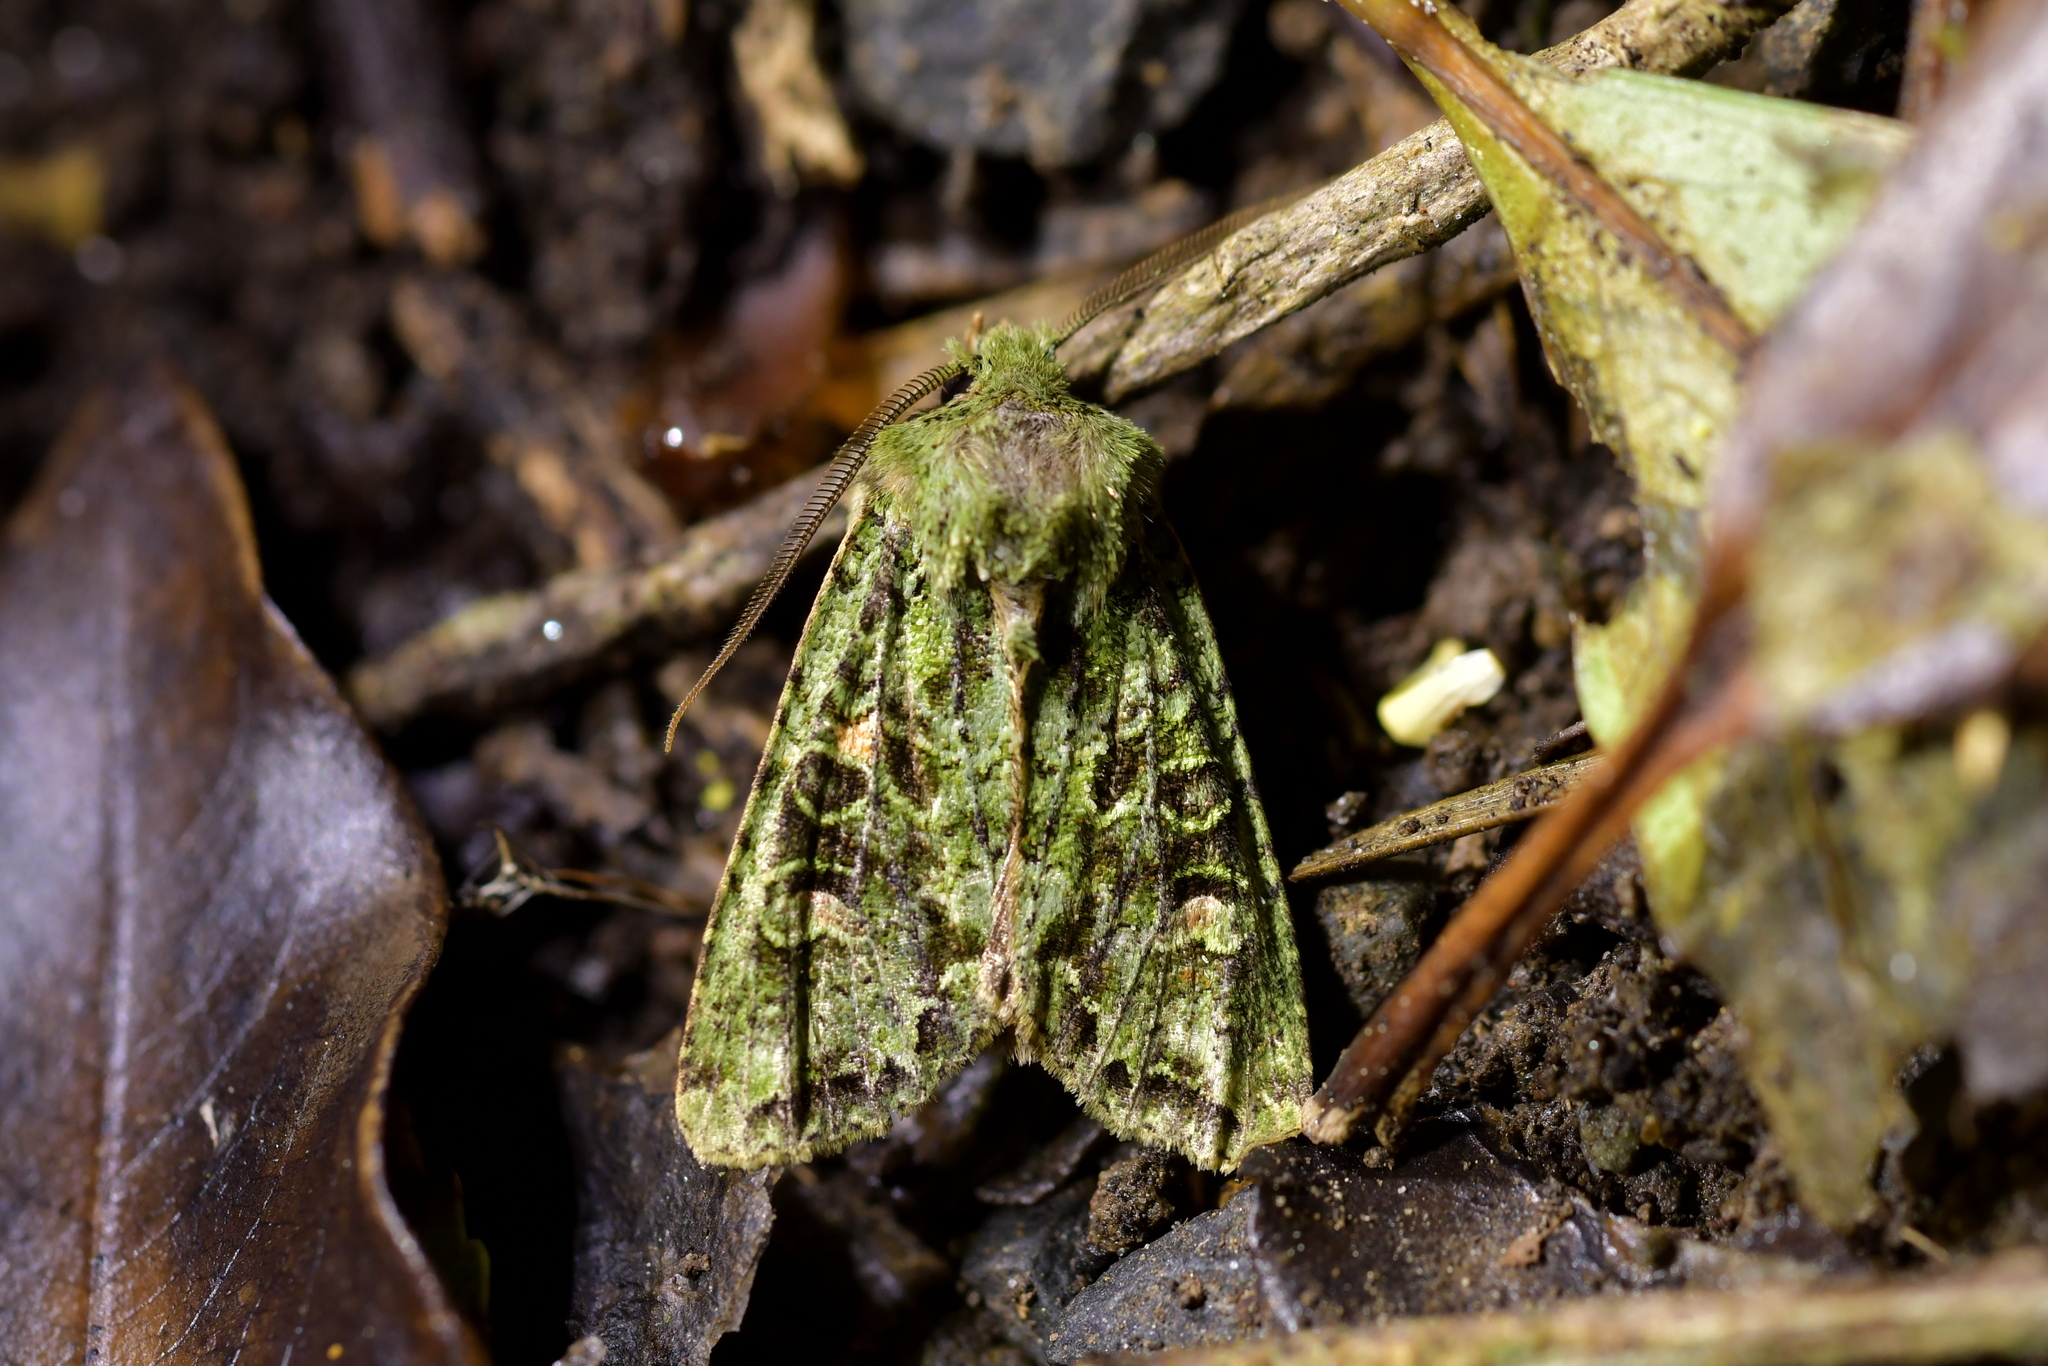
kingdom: Animalia
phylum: Arthropoda
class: Insecta
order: Lepidoptera
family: Noctuidae
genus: Ichneutica
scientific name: Ichneutica
